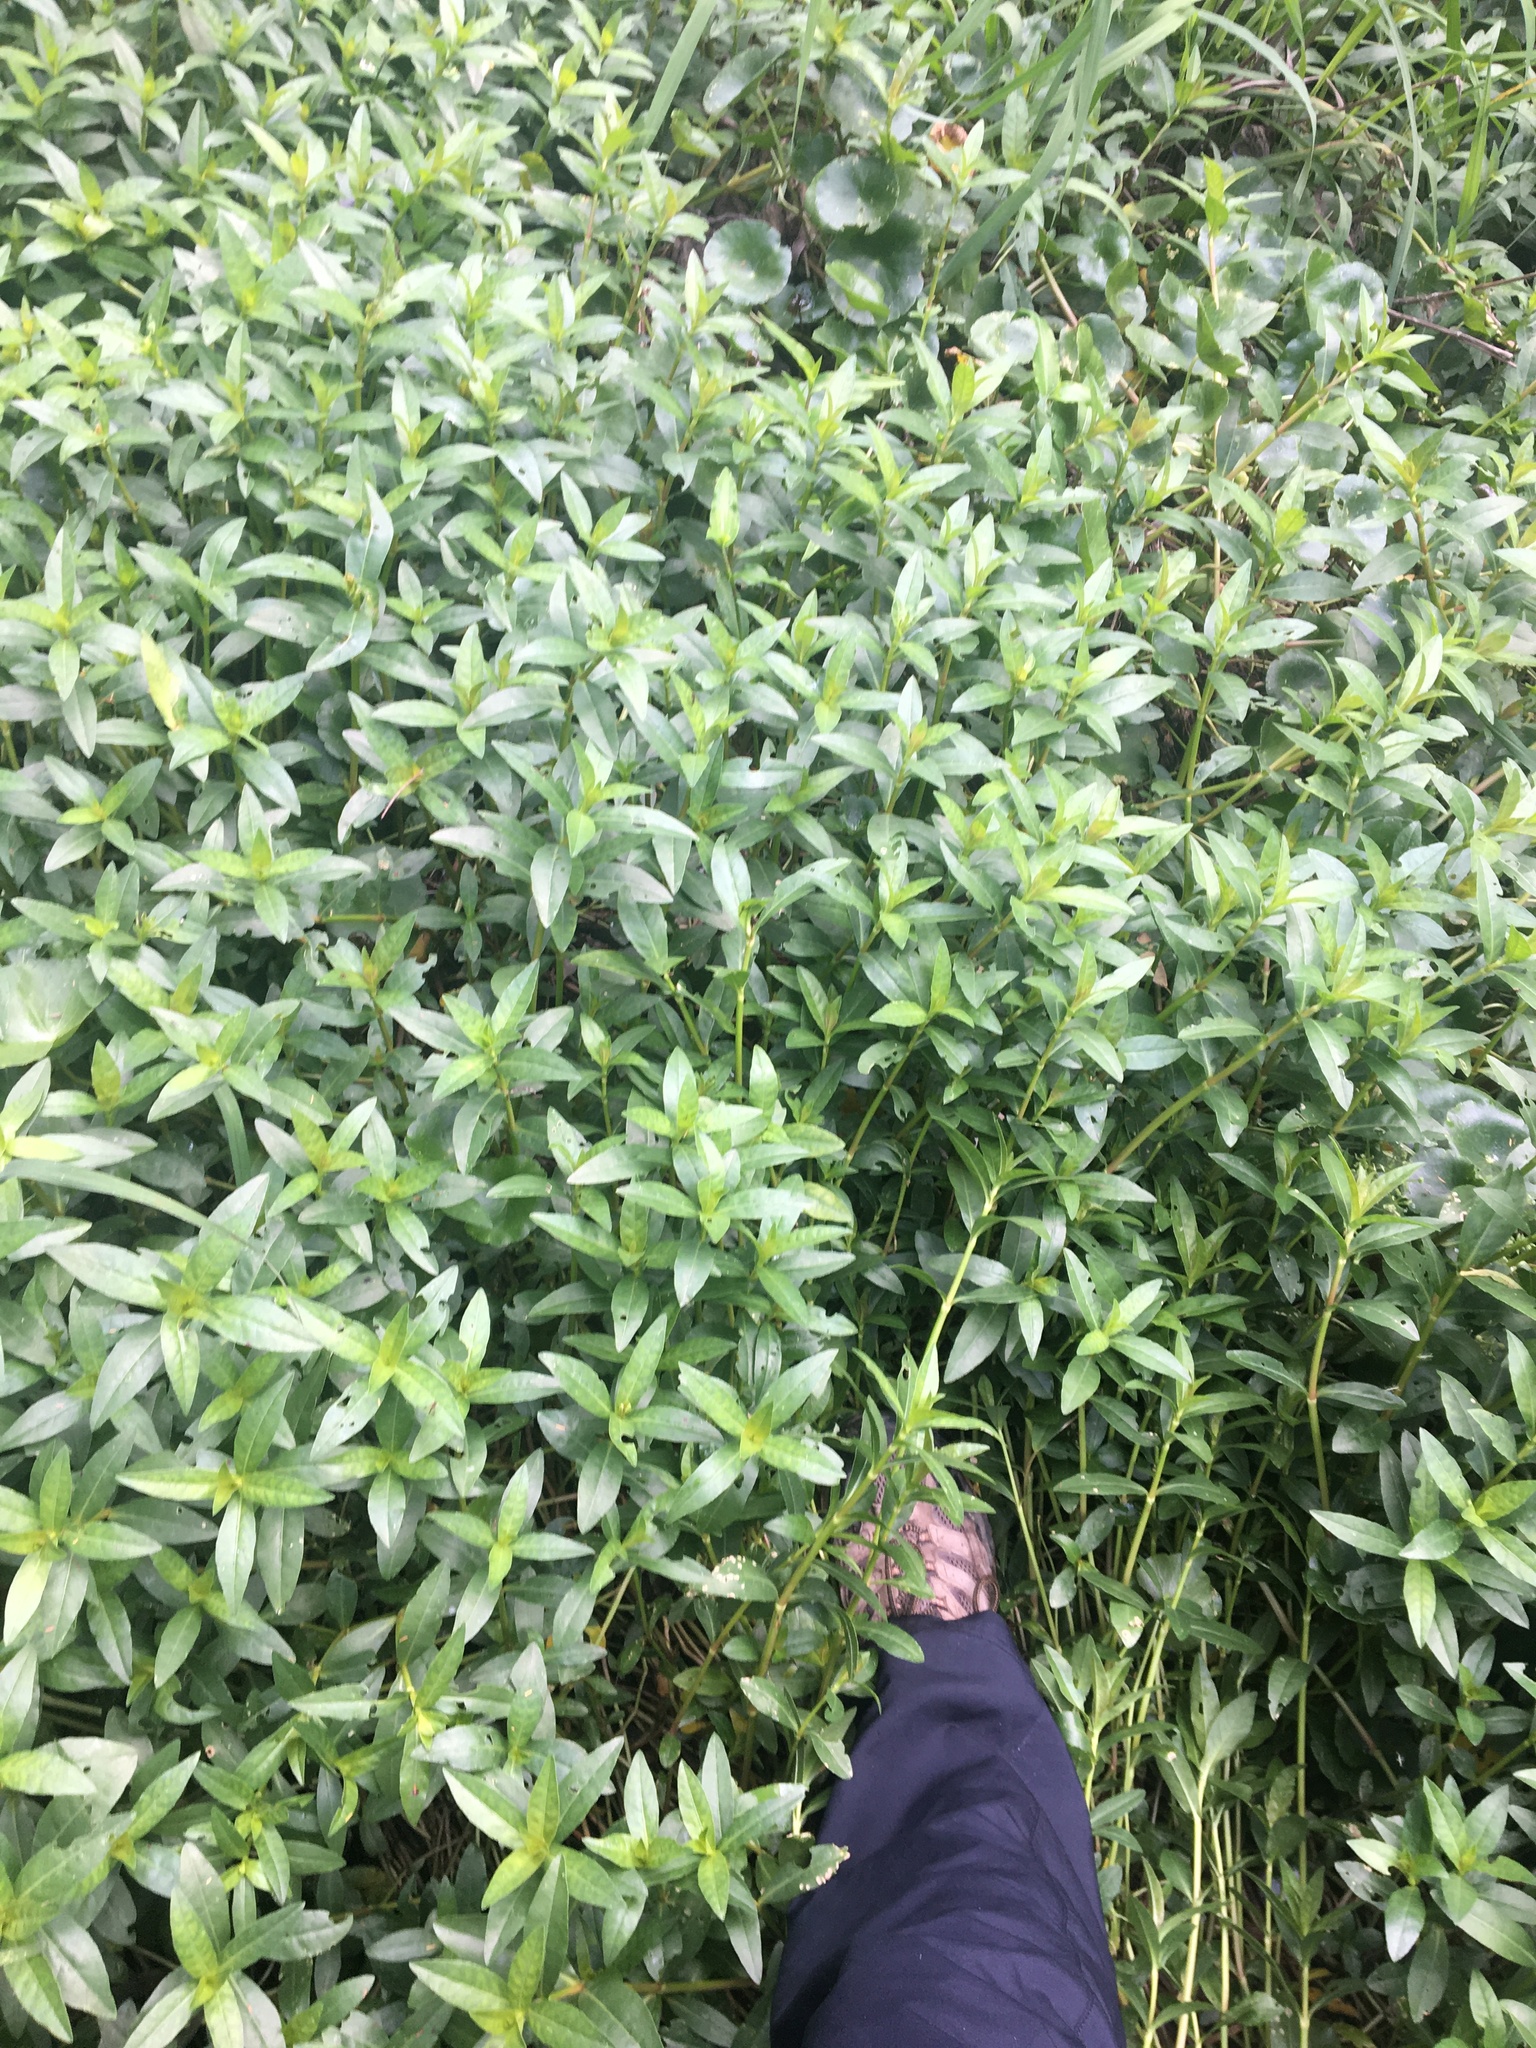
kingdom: Plantae
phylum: Tracheophyta
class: Magnoliopsida
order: Caryophyllales
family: Amaranthaceae
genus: Alternanthera
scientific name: Alternanthera philoxeroides
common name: Alligatorweed
